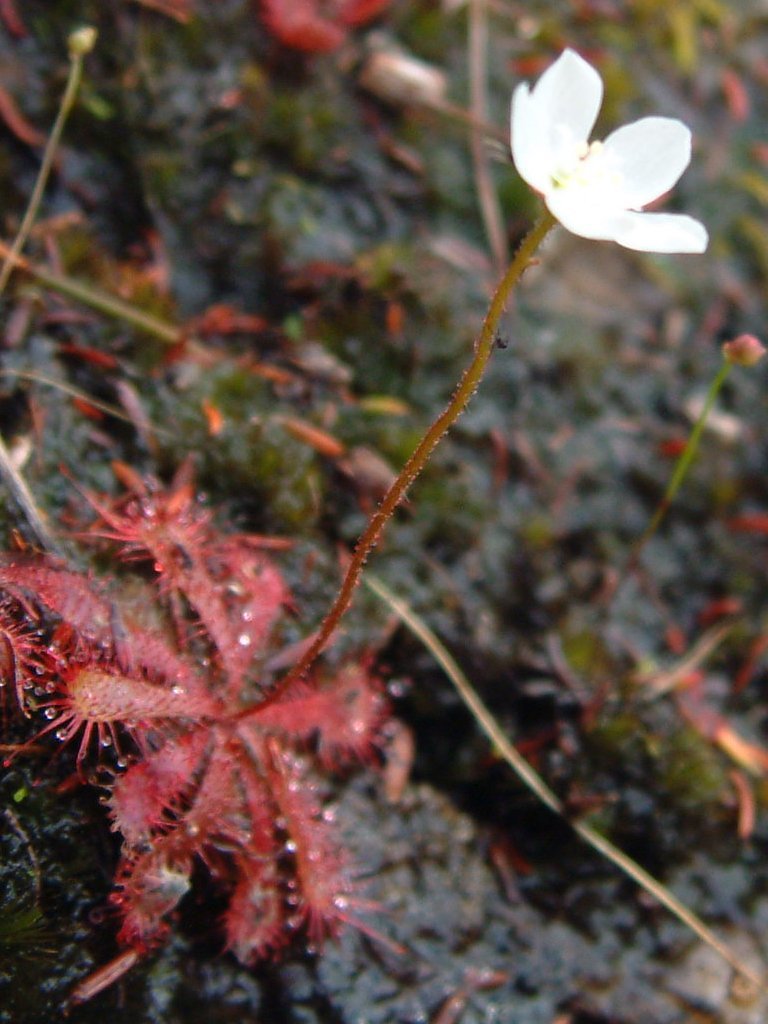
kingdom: Plantae
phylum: Tracheophyta
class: Magnoliopsida
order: Caryophyllales
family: Droseraceae
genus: Drosera
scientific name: Drosera trinervia
